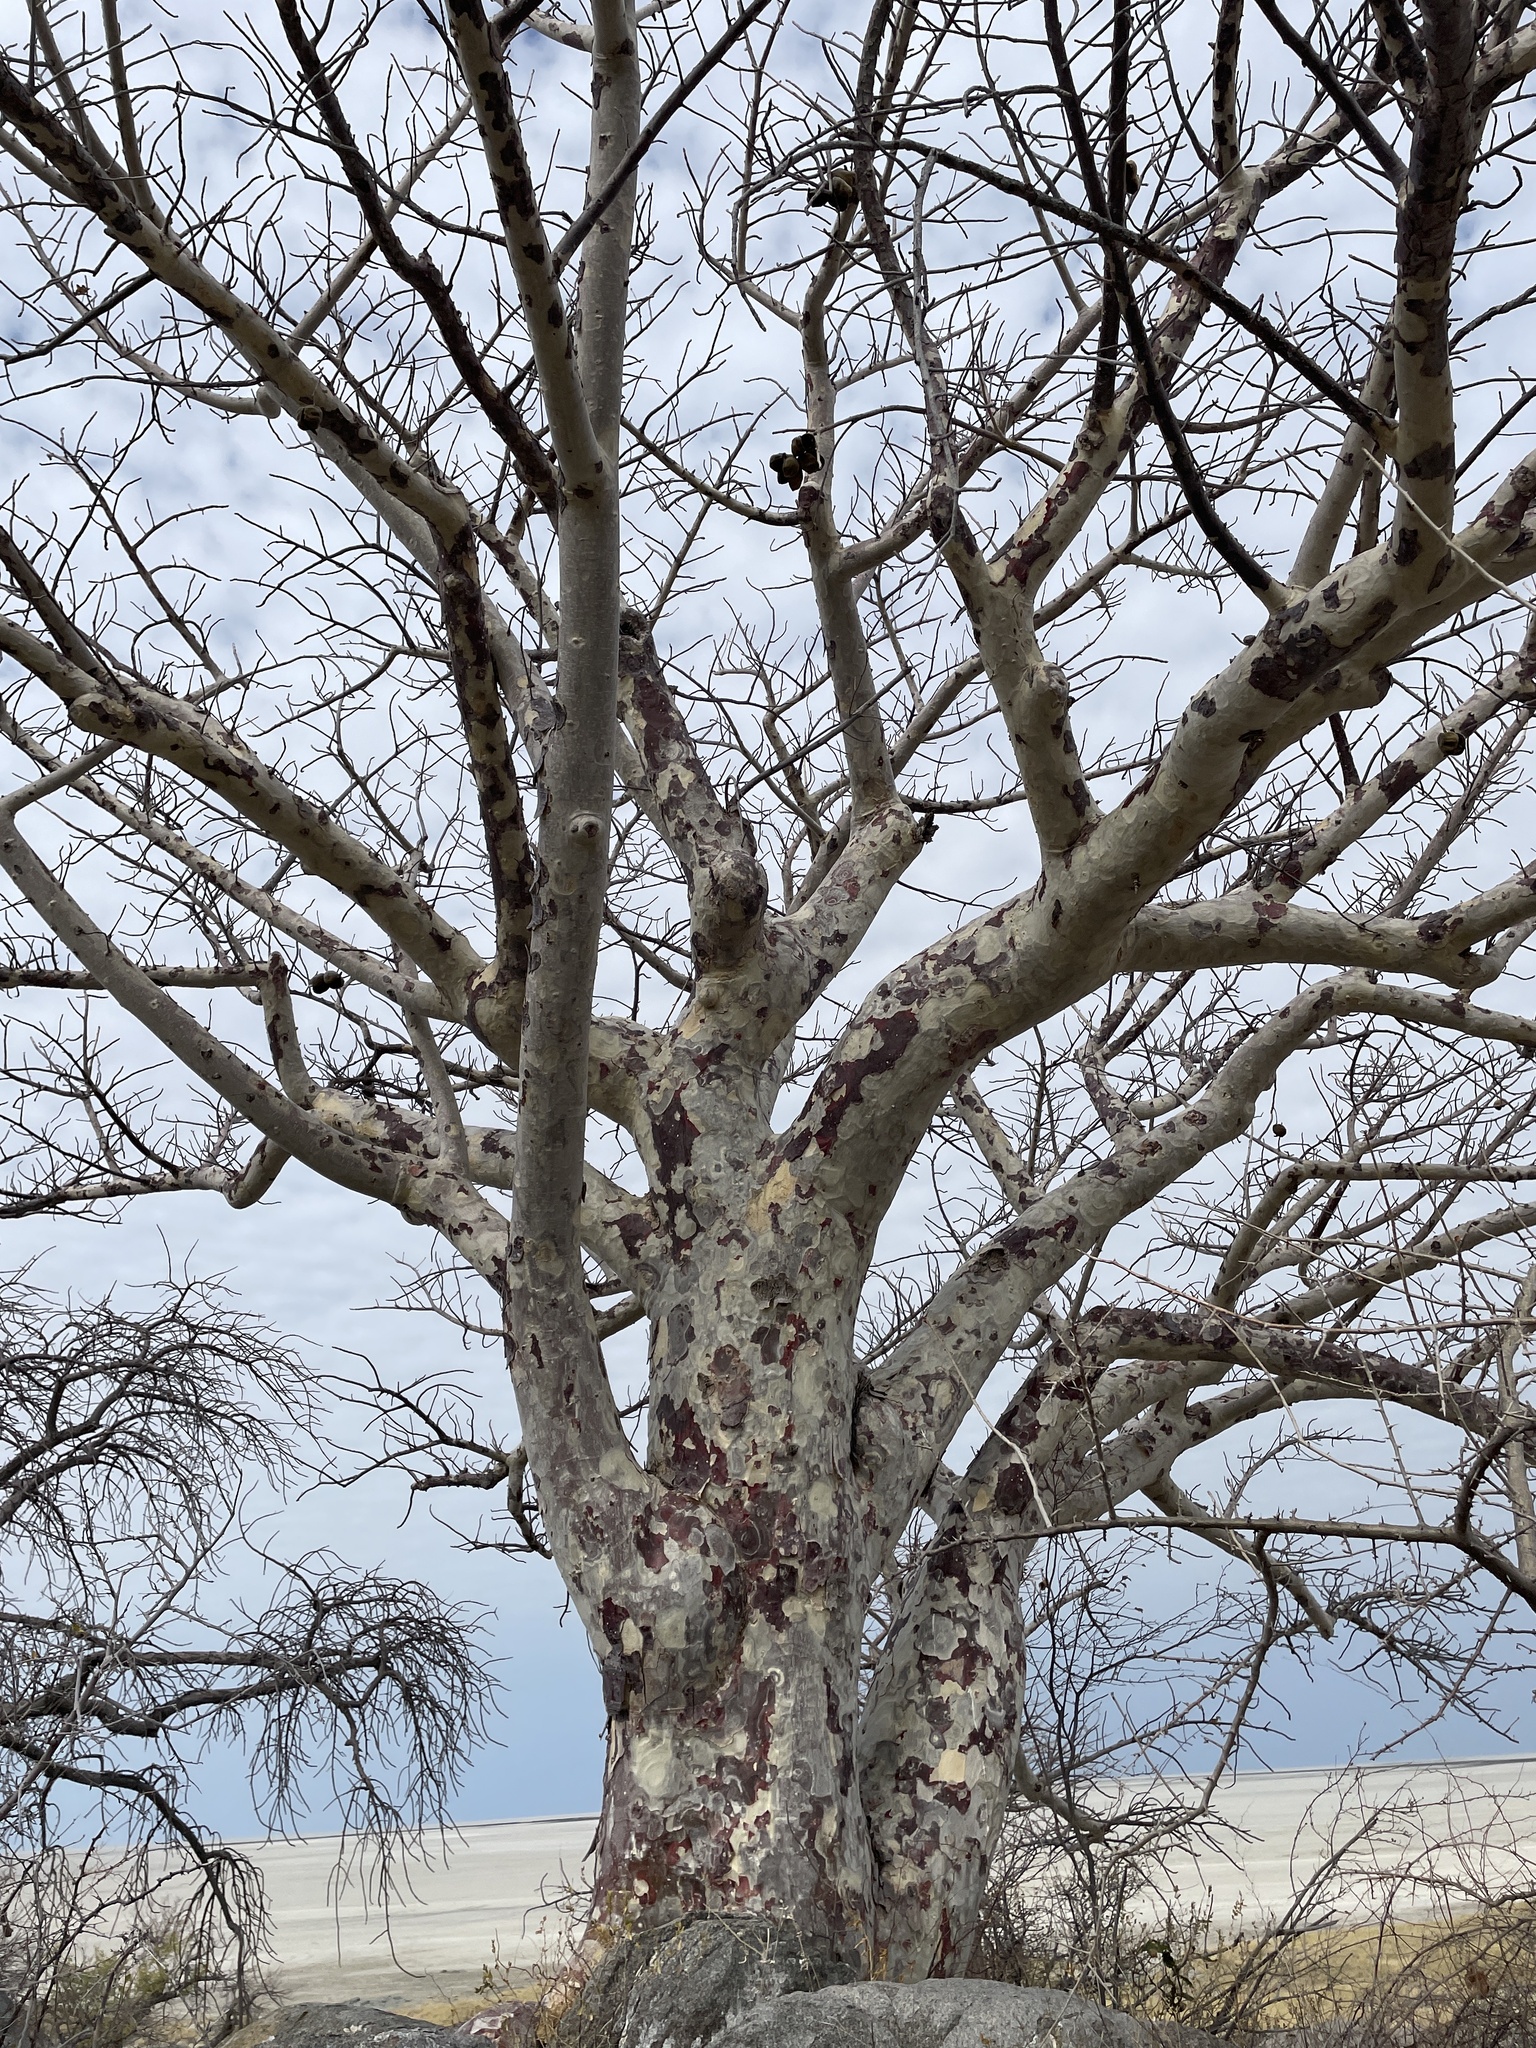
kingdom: Plantae
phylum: Tracheophyta
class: Magnoliopsida
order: Malvales
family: Malvaceae
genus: Sterculia
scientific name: Sterculia africana
